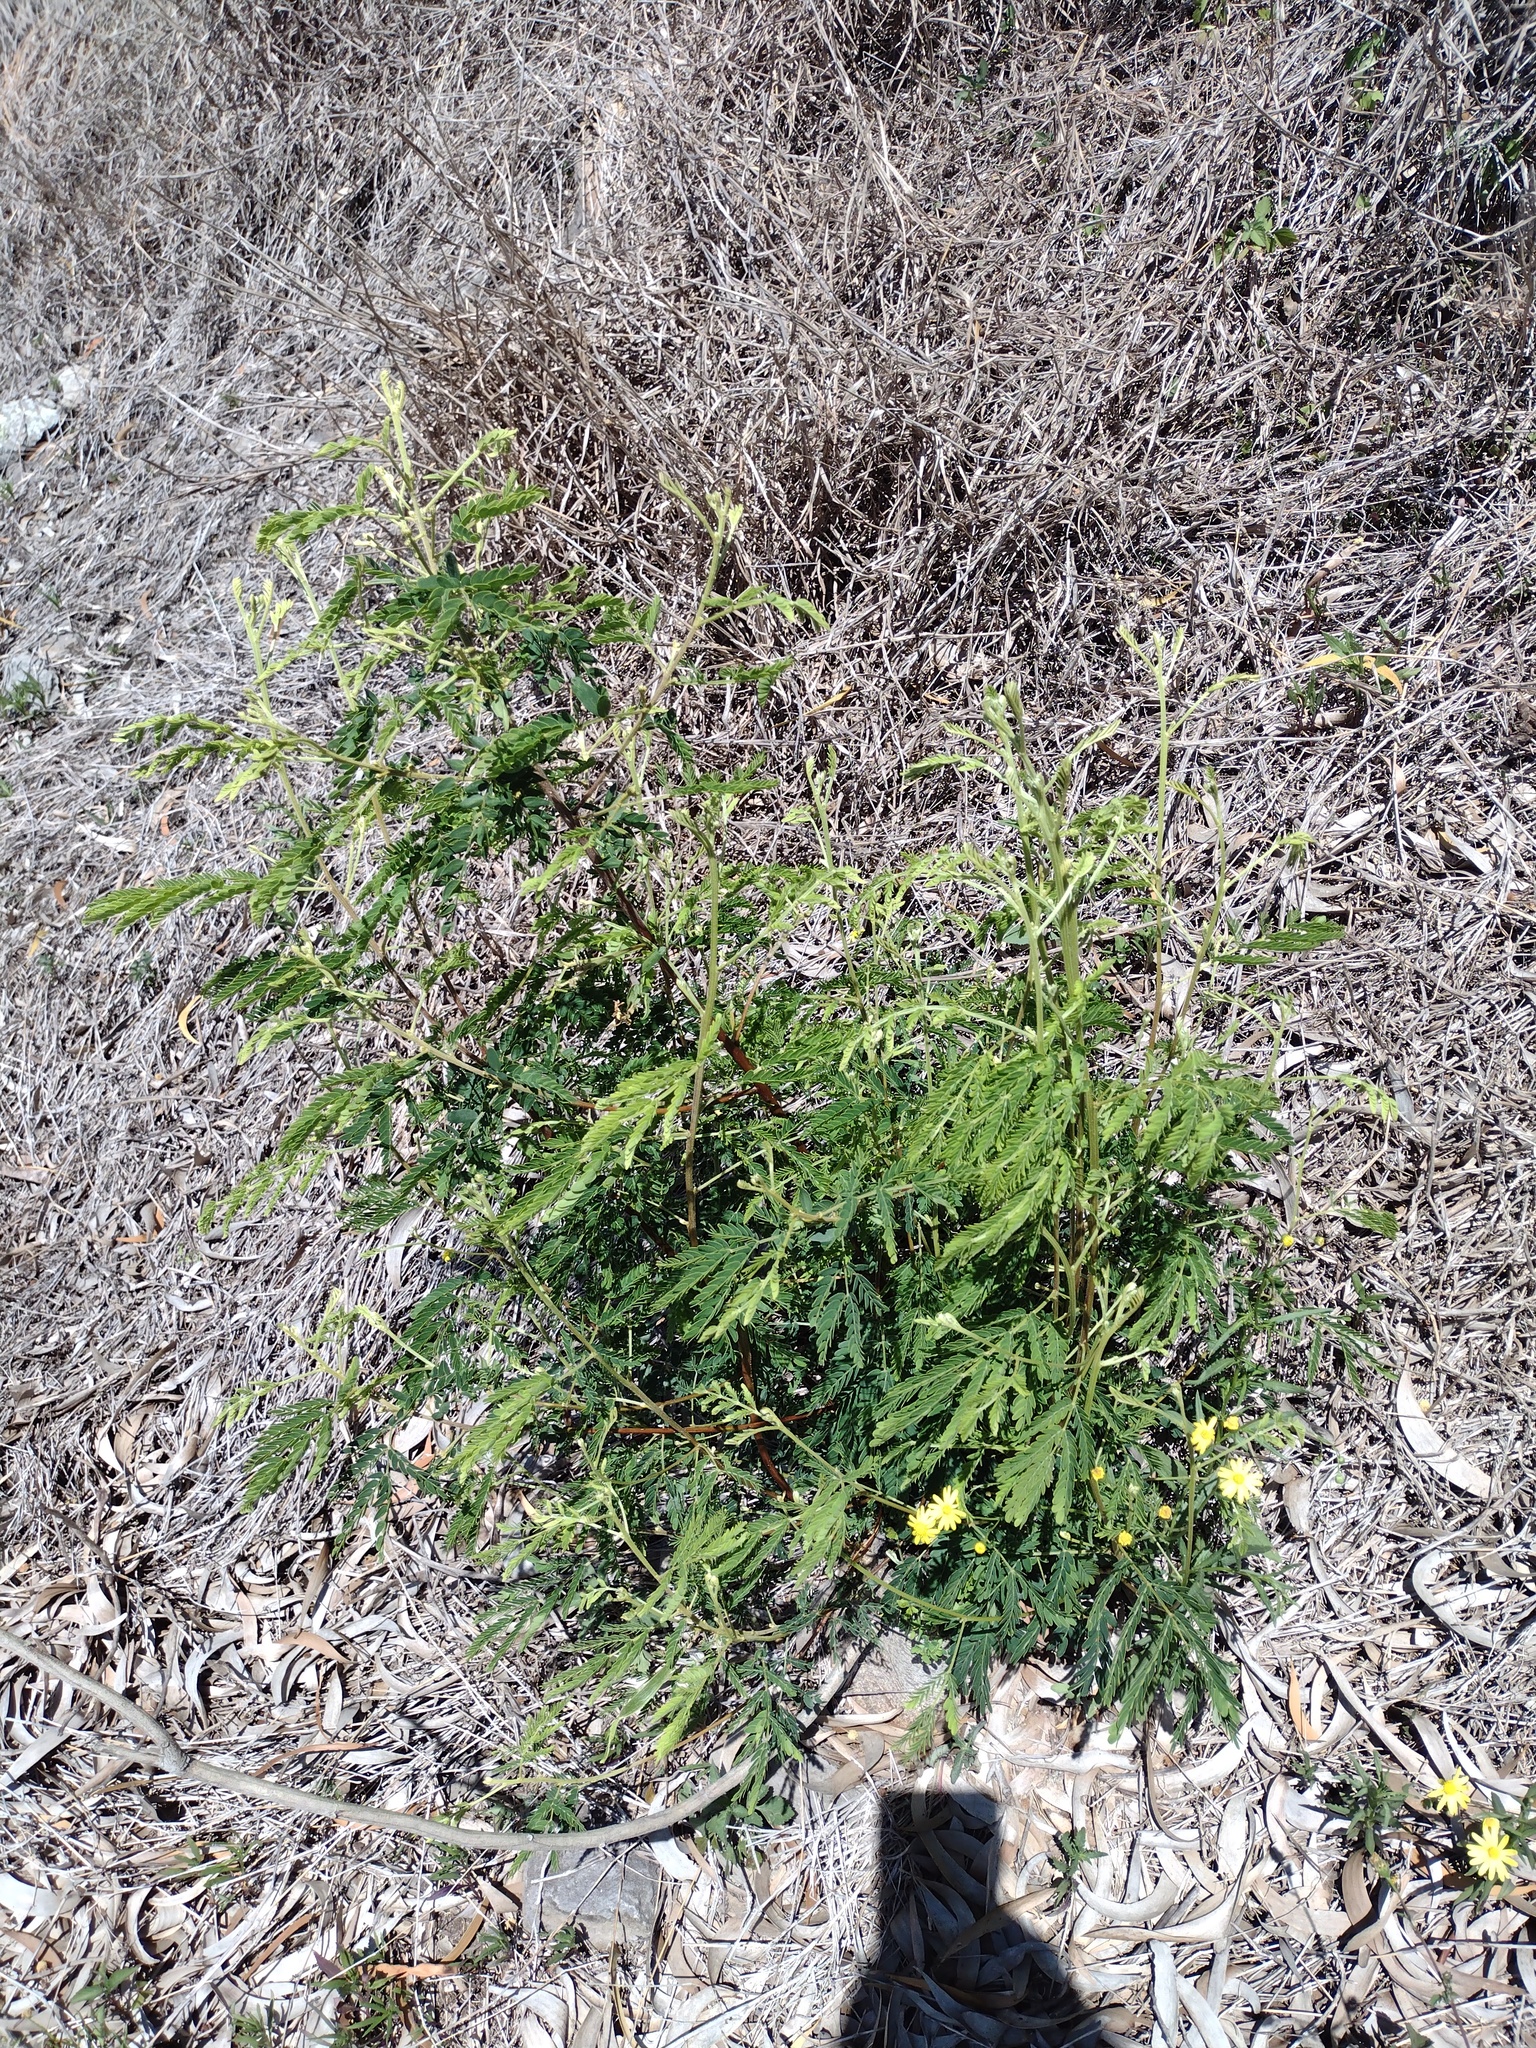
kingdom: Plantae
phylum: Tracheophyta
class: Magnoliopsida
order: Fabales
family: Fabaceae
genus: Leucaena
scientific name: Leucaena leucocephala
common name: White leadtree
